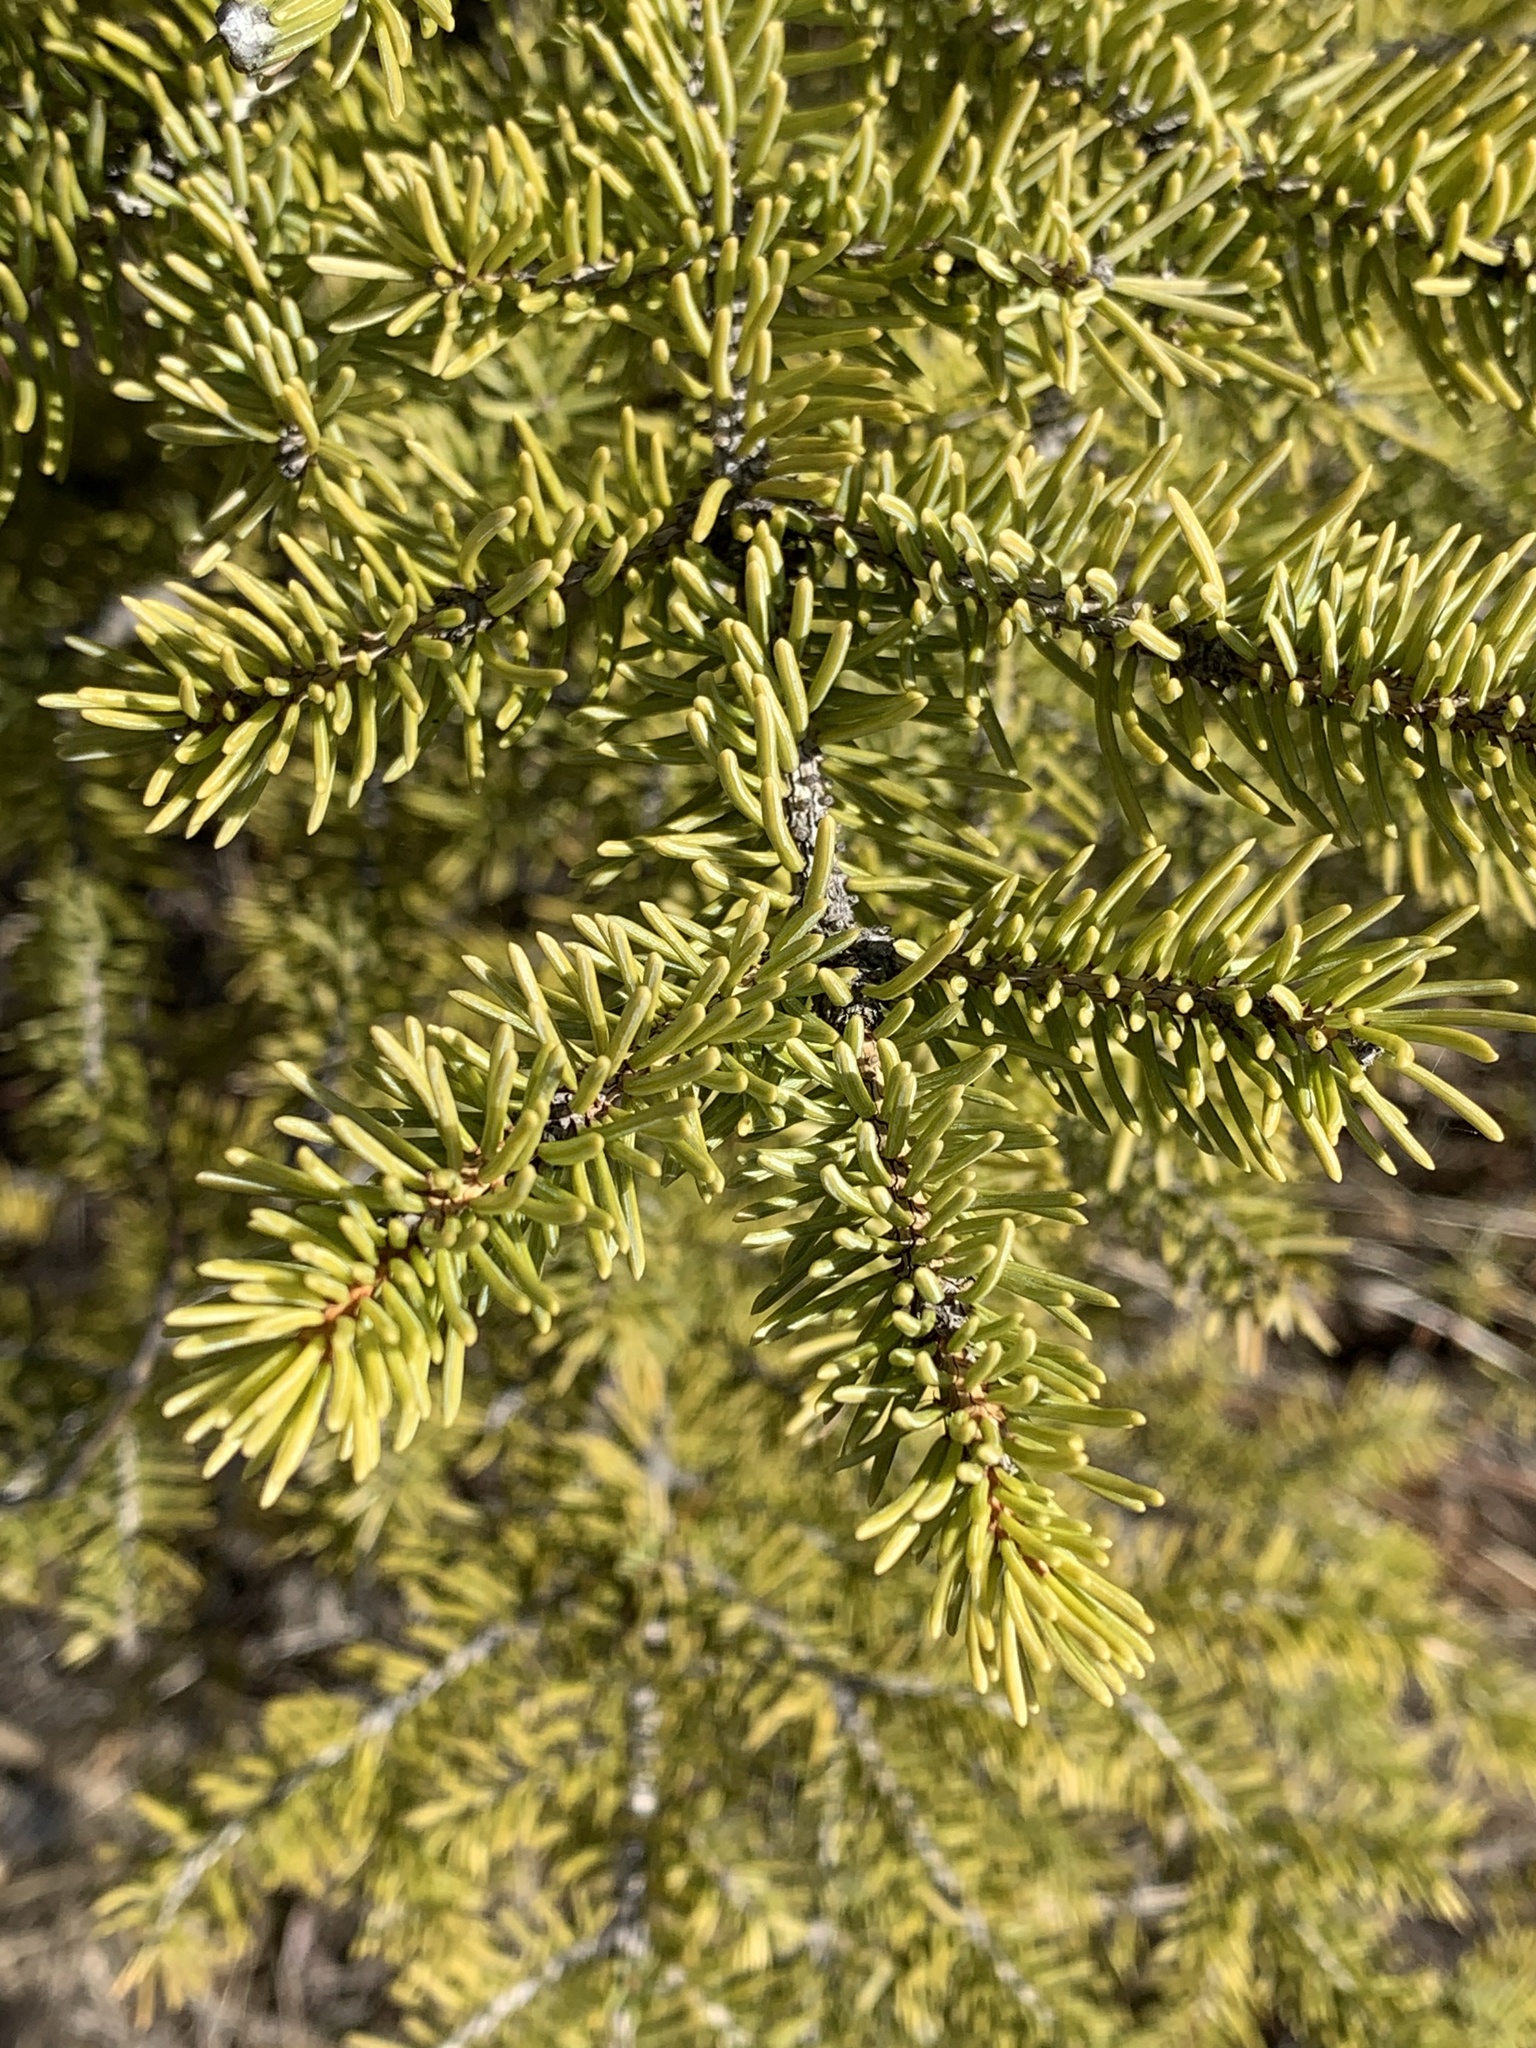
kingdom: Plantae
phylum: Tracheophyta
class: Pinopsida
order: Pinales
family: Pinaceae
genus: Picea
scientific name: Picea glauca
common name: White spruce
